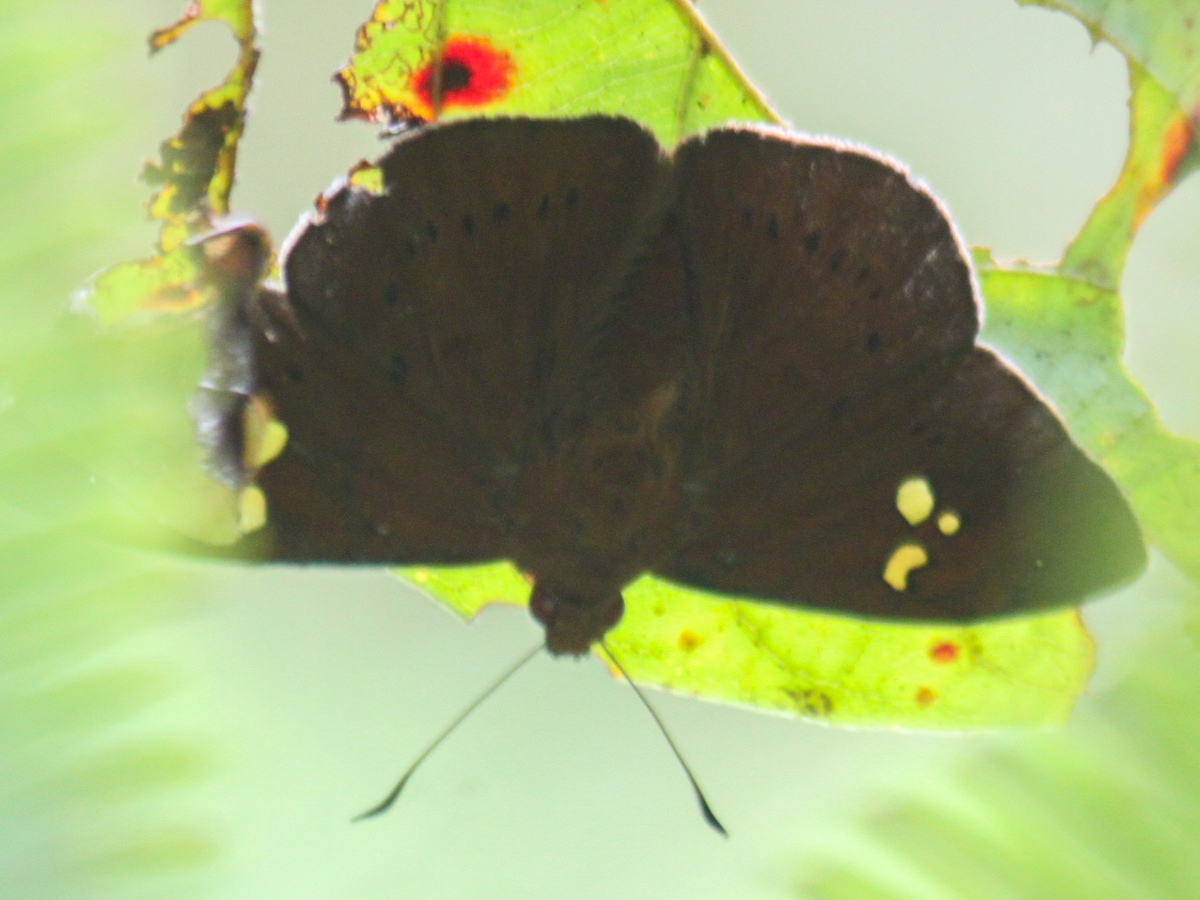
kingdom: Animalia
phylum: Arthropoda
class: Insecta
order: Lepidoptera
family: Hesperiidae
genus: Capila
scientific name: Capila phanaeus
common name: Fulvous dawnfly
